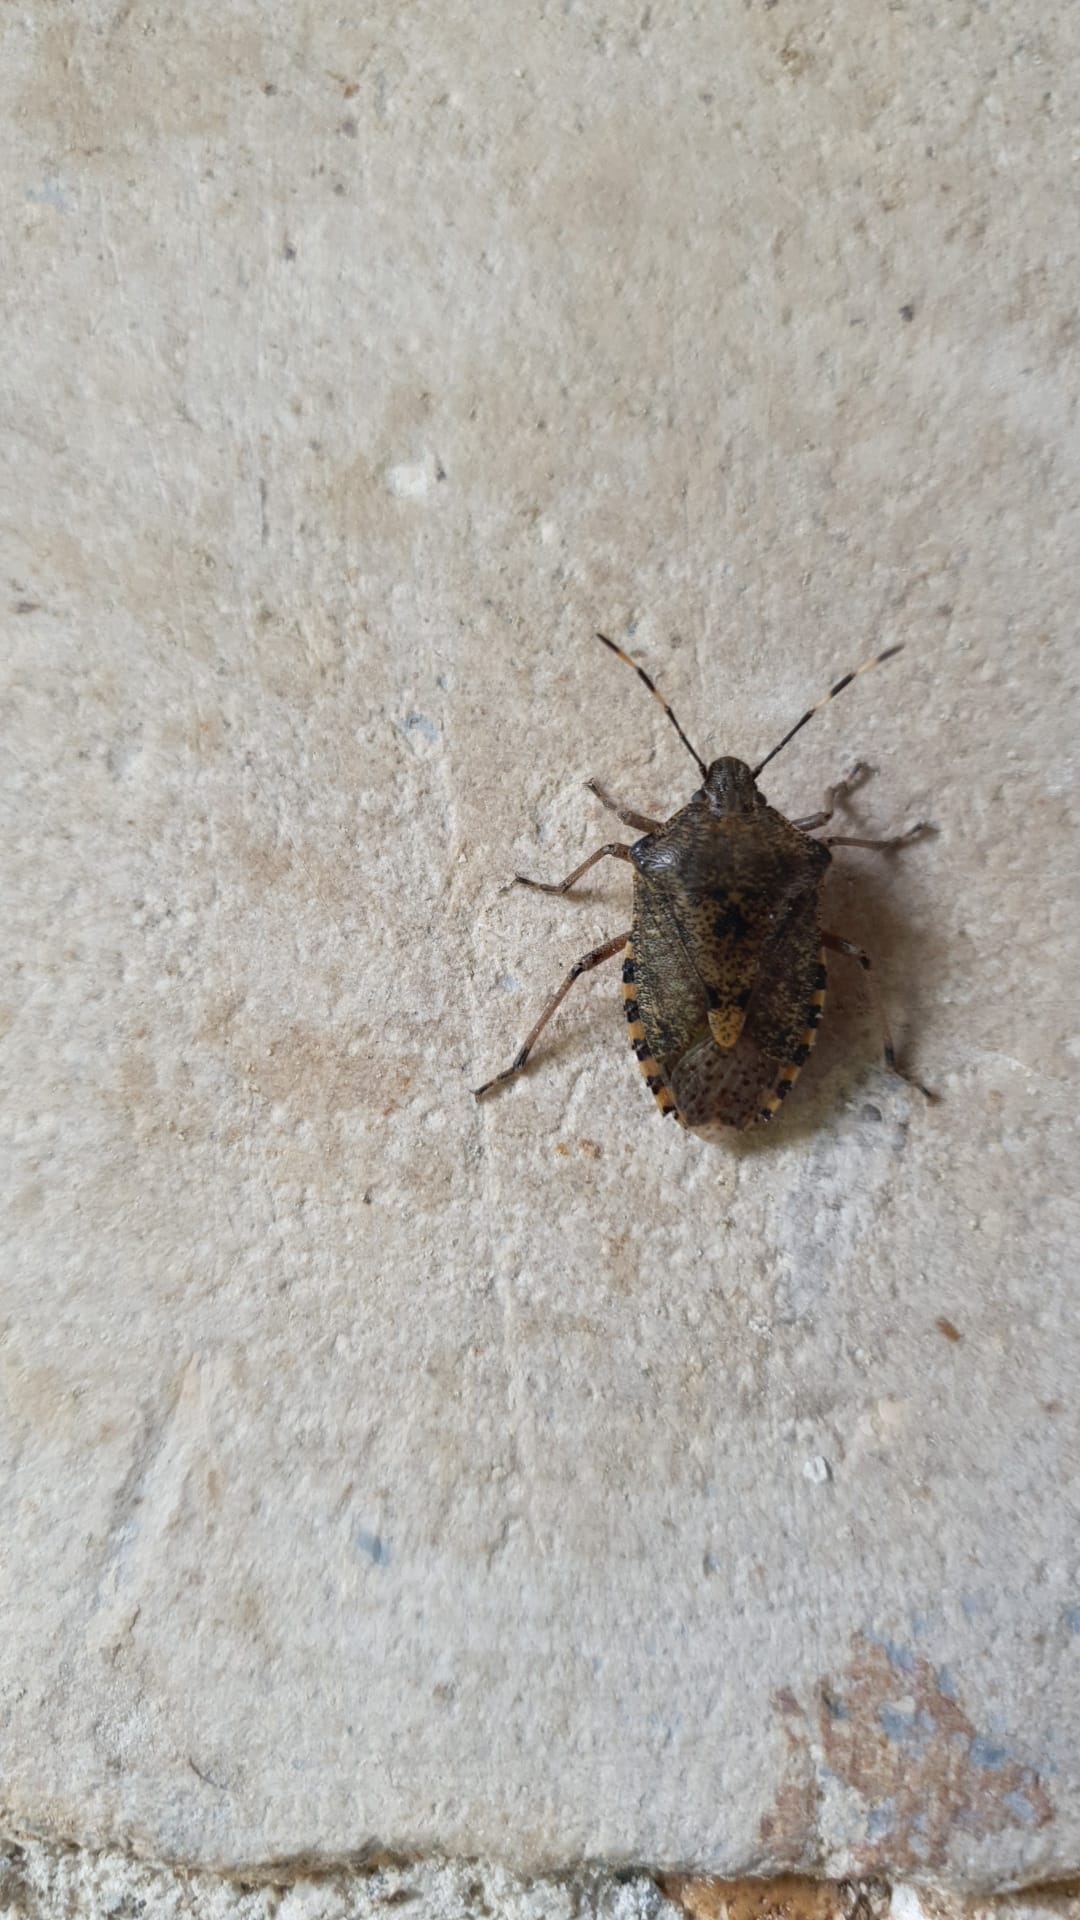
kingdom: Animalia
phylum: Arthropoda
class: Insecta
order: Hemiptera
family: Pentatomidae
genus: Rhaphigaster
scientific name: Rhaphigaster nebulosa
